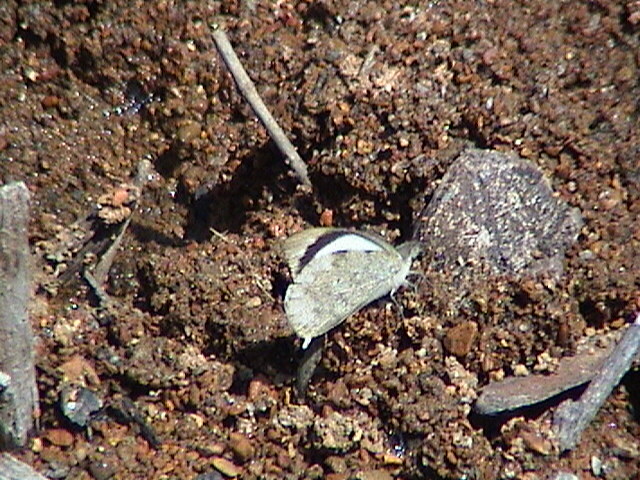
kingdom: Animalia
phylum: Arthropoda
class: Insecta
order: Lepidoptera
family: Pieridae
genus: Appias
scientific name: Appias indra
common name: Plain puffin
